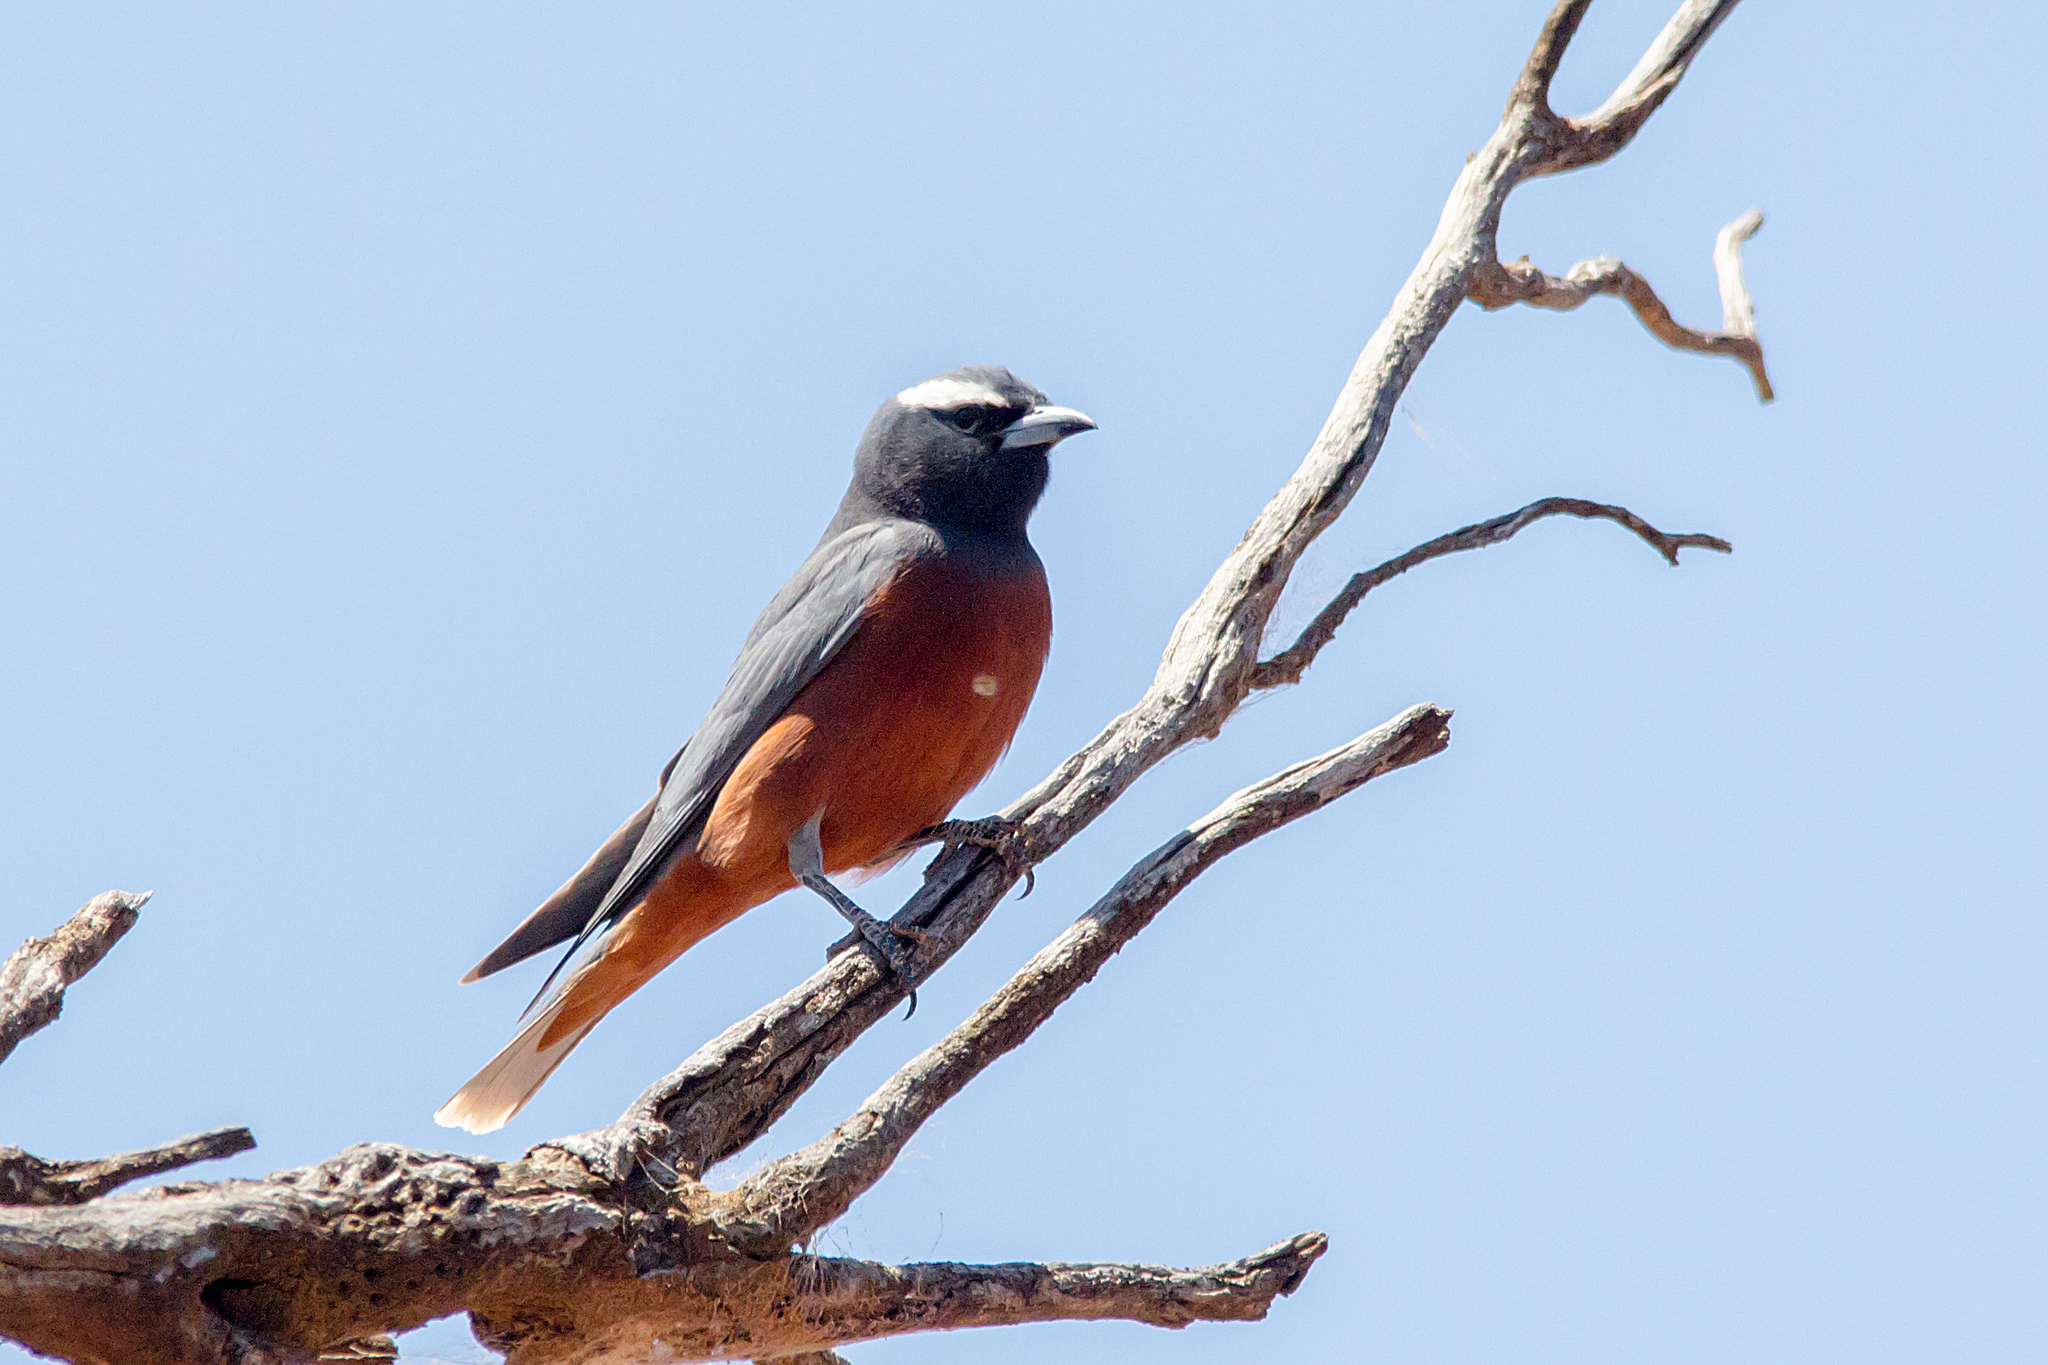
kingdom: Animalia
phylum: Chordata
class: Aves
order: Passeriformes
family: Artamidae
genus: Artamus
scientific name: Artamus superciliosus
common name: White-browed woodswallow
